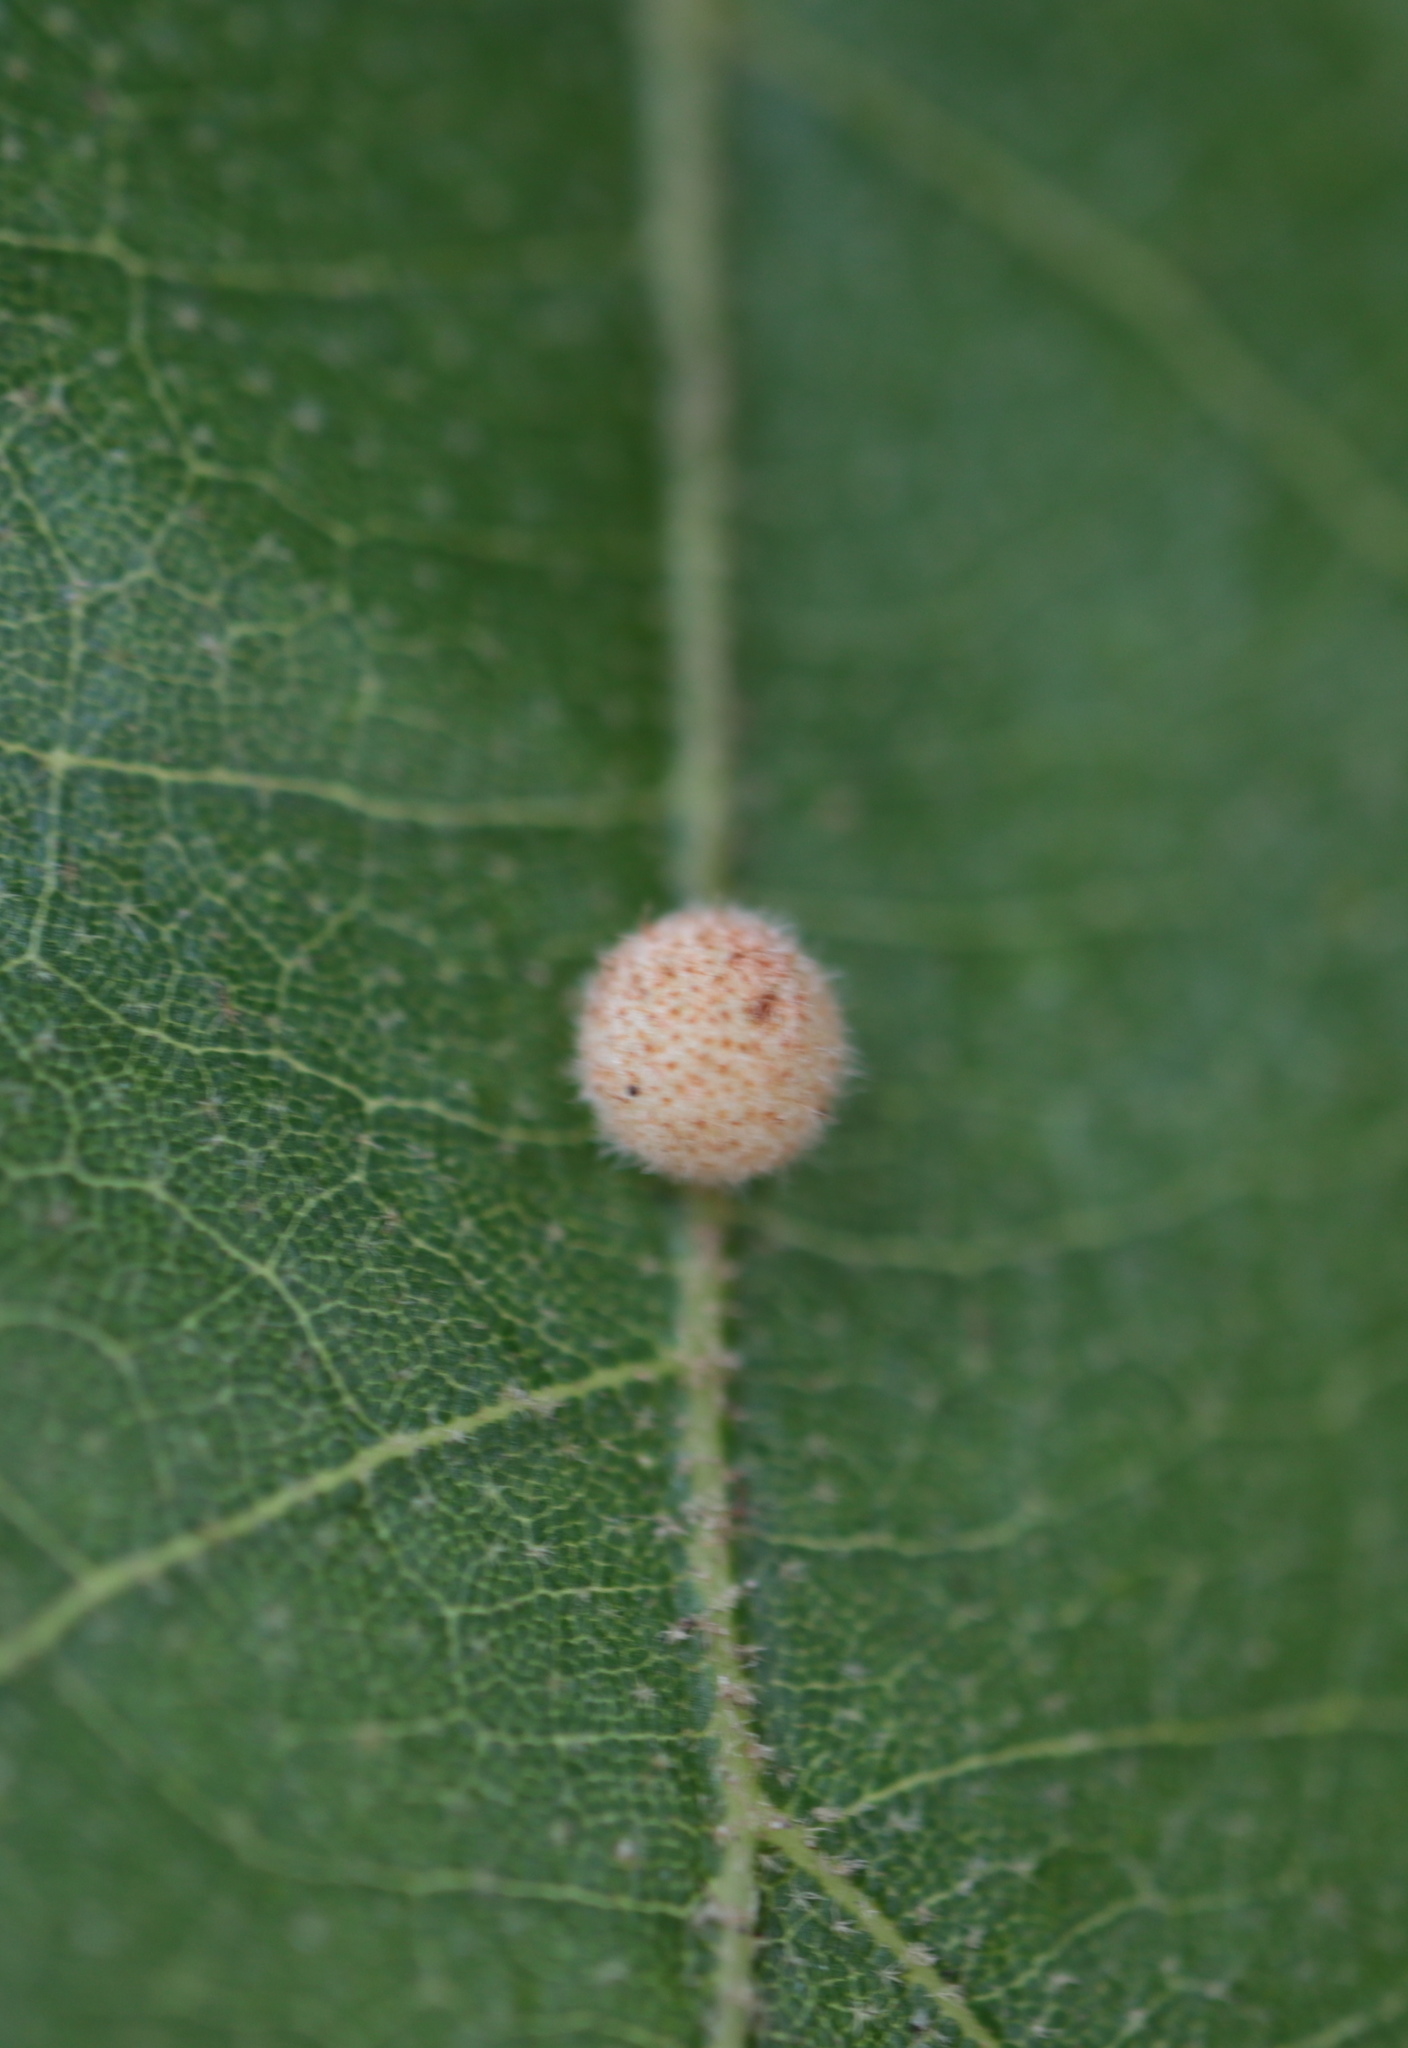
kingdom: Animalia
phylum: Arthropoda
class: Insecta
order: Hymenoptera
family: Cynipidae
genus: Biorhiza
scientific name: Biorhiza Sphaeroteras carolina
